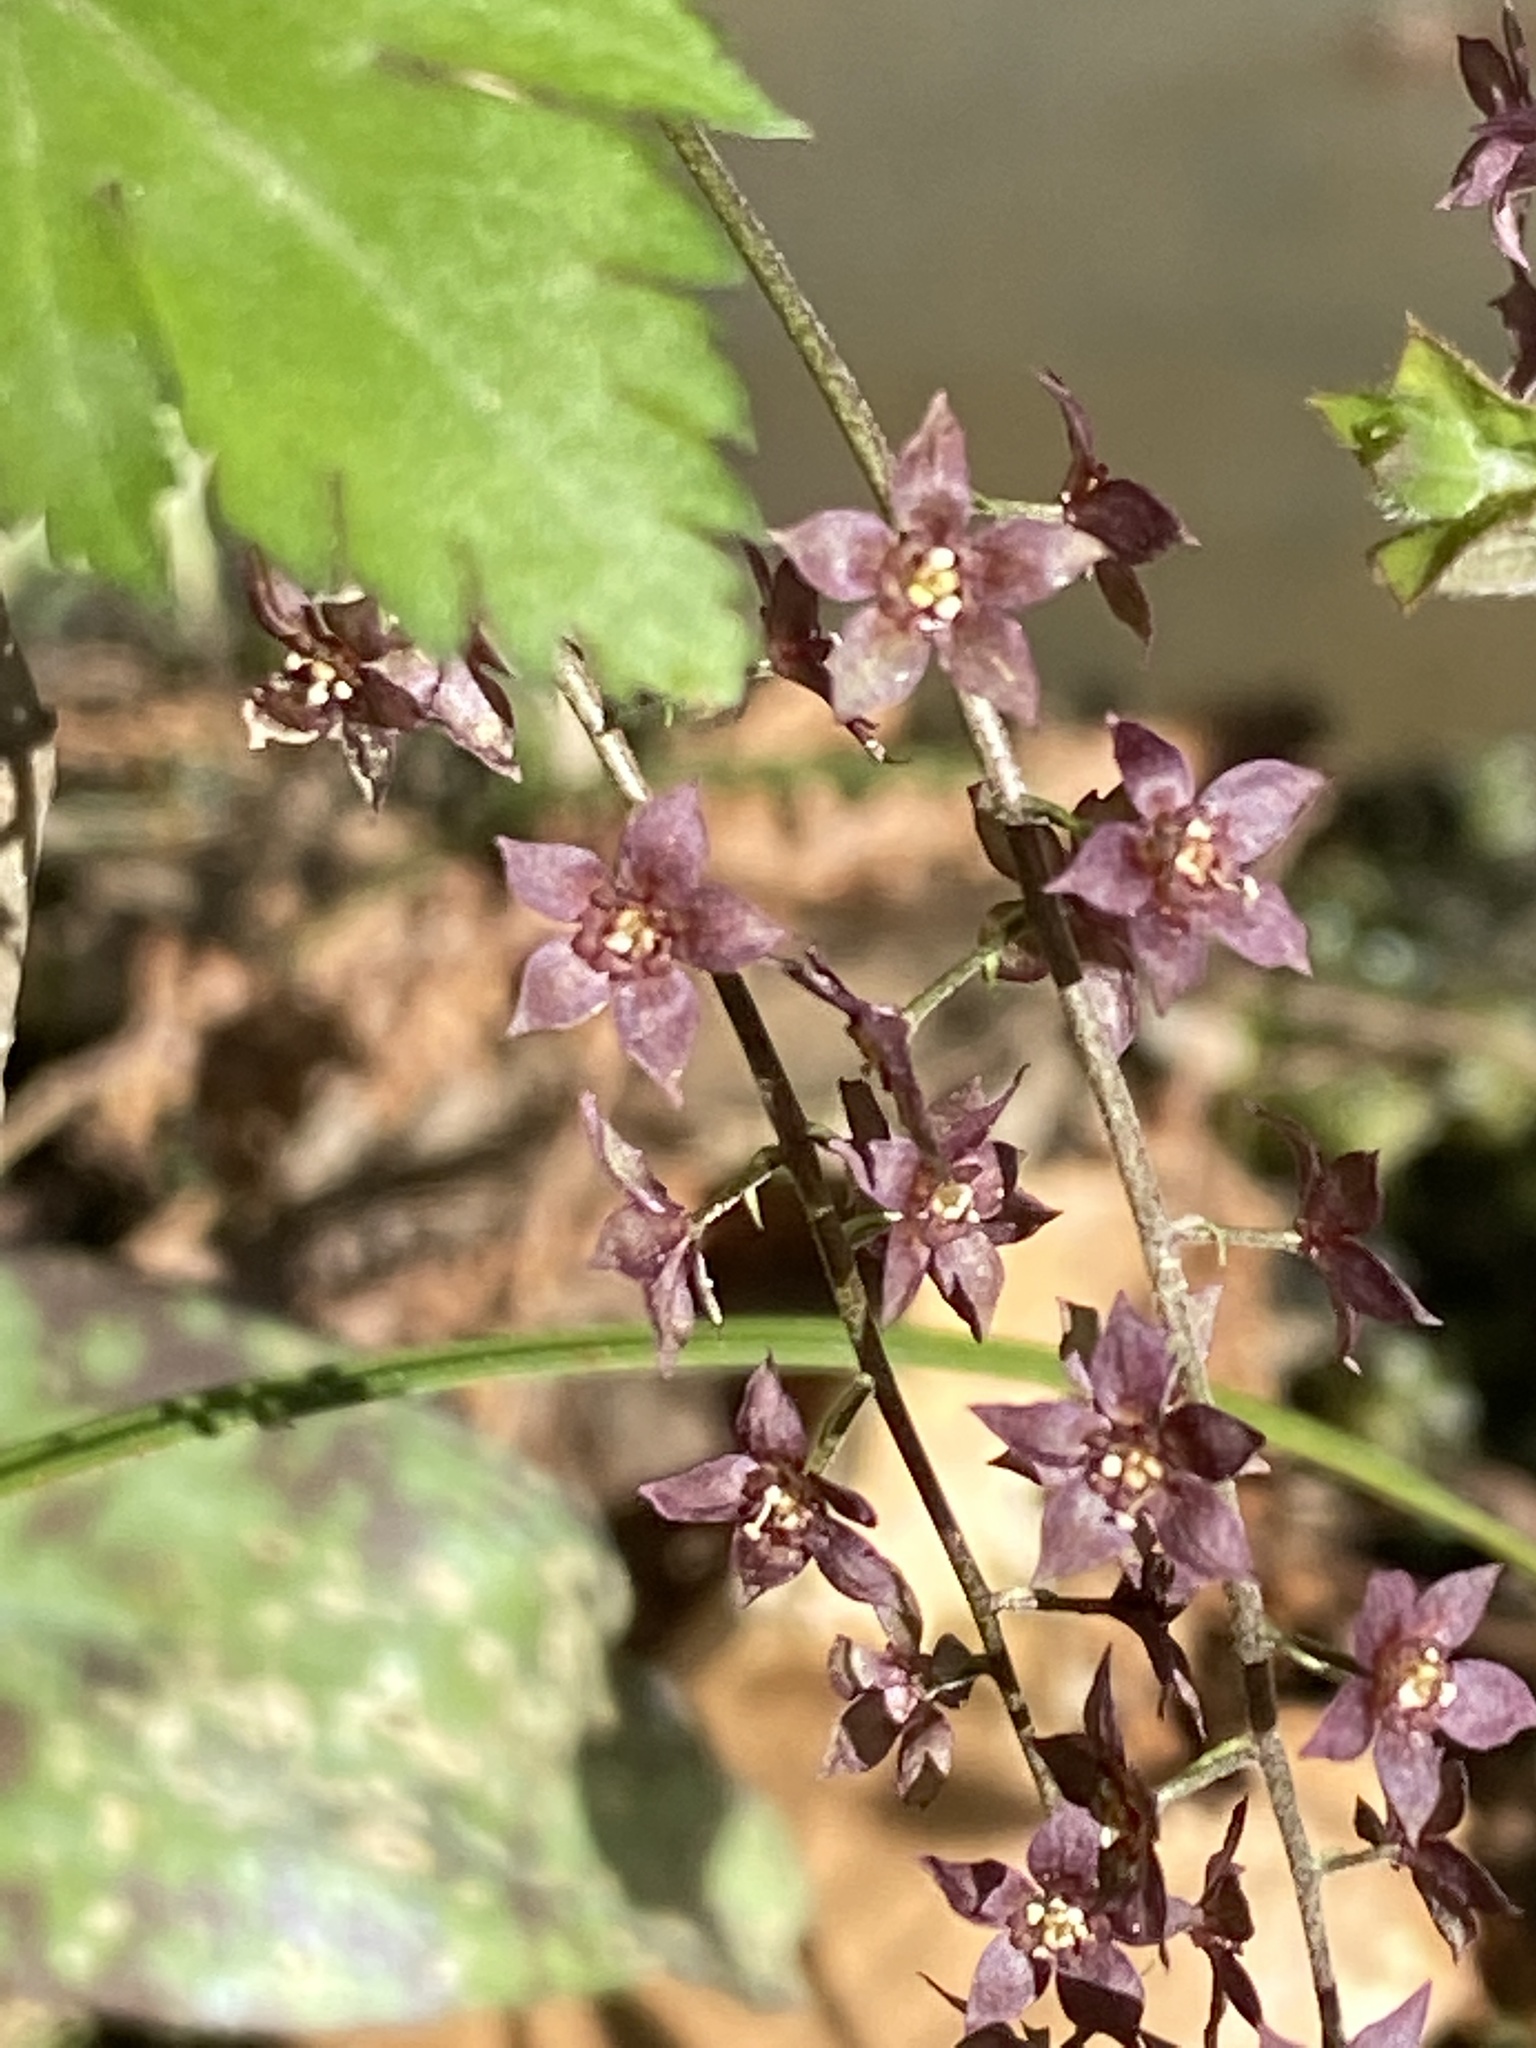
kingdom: Plantae
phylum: Tracheophyta
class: Magnoliopsida
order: Ranunculales
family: Ranunculaceae
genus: Xanthorhiza
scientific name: Xanthorhiza simplicissima
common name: Yellowroot
